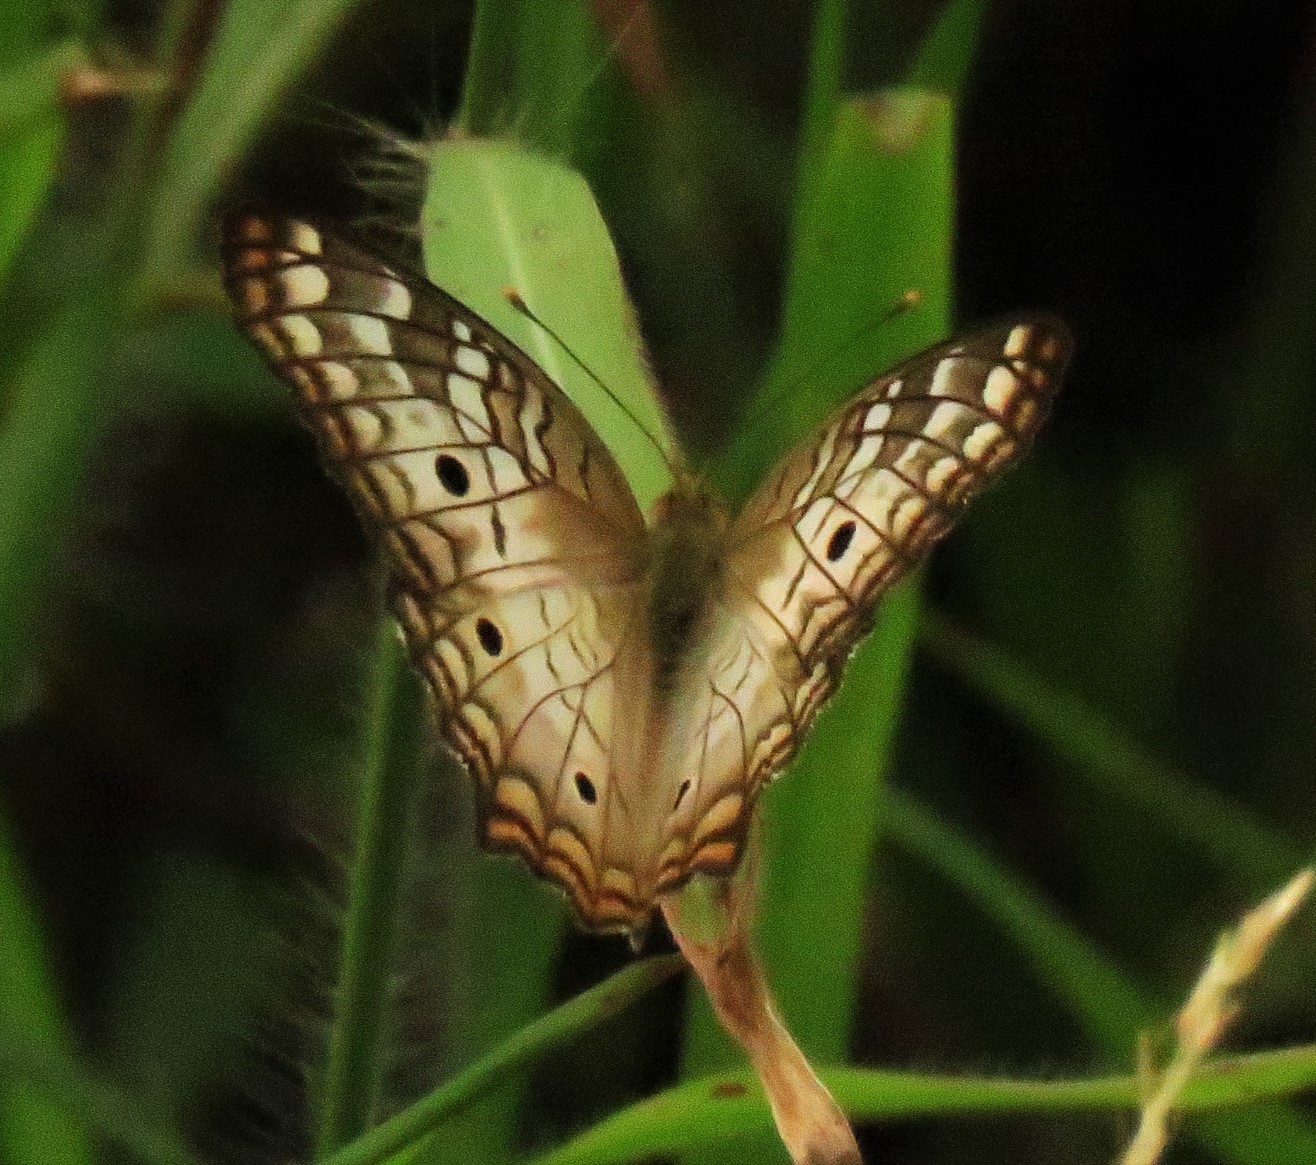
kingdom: Animalia
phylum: Arthropoda
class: Insecta
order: Lepidoptera
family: Nymphalidae
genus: Anartia
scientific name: Anartia jatrophae
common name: White peacock
